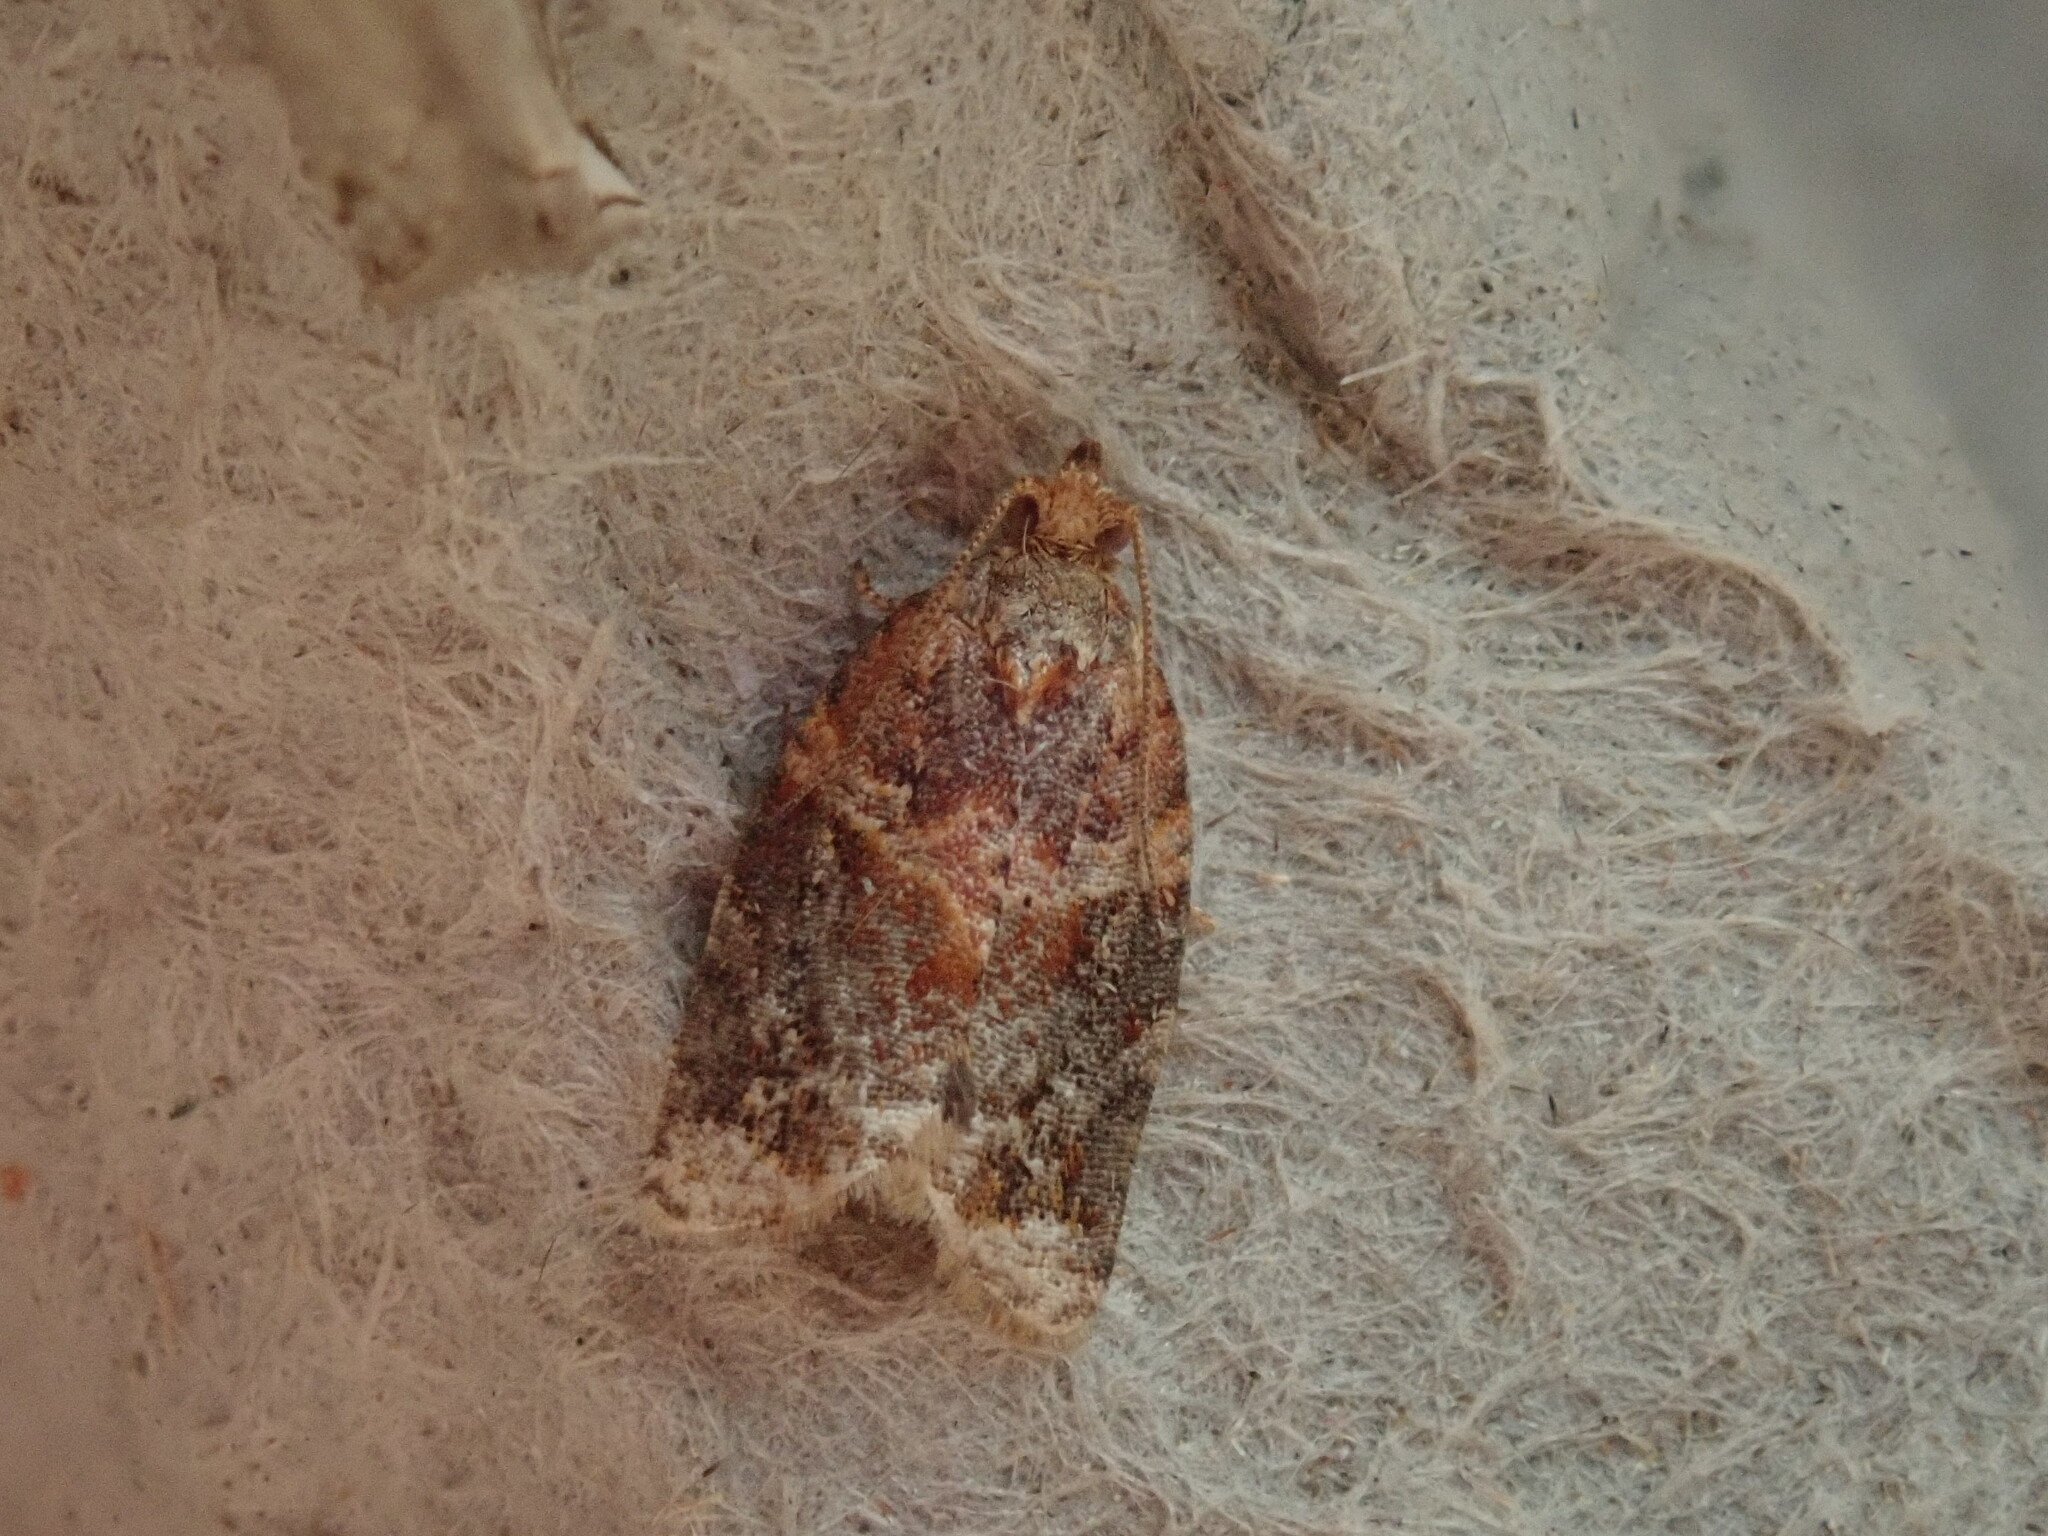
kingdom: Animalia
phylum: Arthropoda
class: Insecta
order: Lepidoptera
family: Tortricidae
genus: Argyrotaenia
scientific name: Argyrotaenia velutinana
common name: Red-banded leafroller moth
